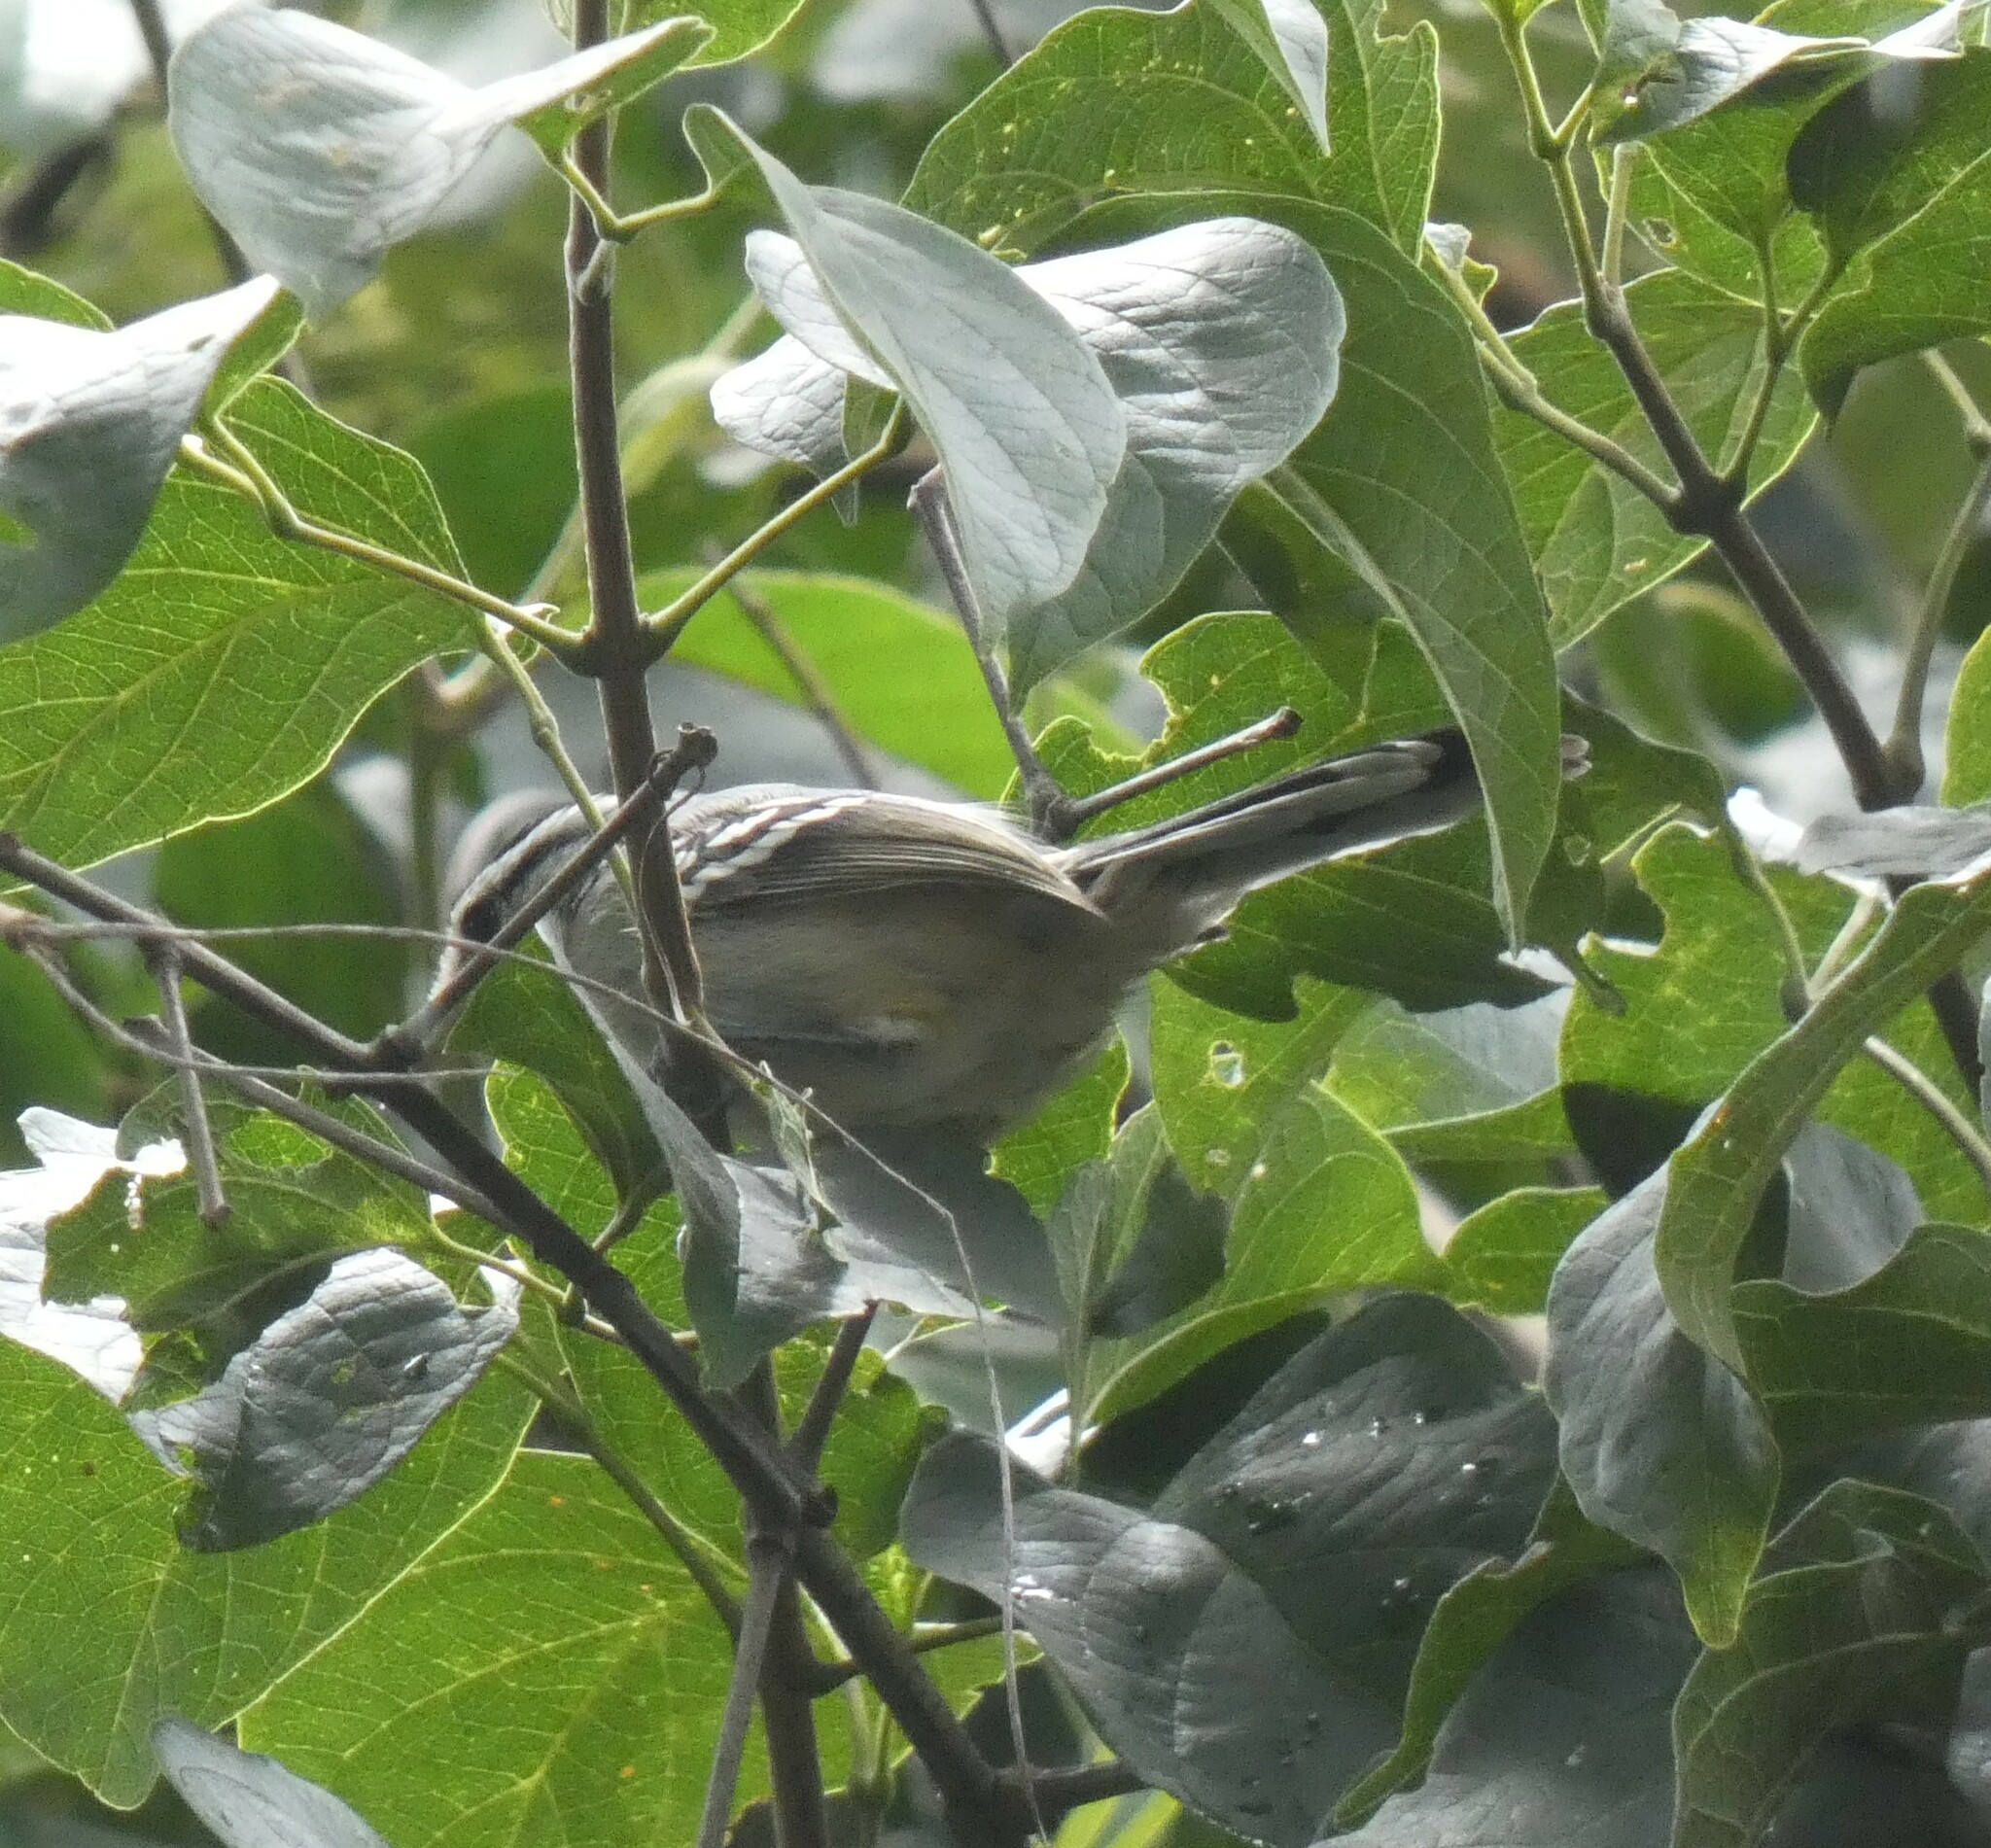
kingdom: Animalia
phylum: Chordata
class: Aves
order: Passeriformes
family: Thamnophilidae
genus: Herpsilochmus
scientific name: Herpsilochmus atricapillus
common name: Black-capped antwren
